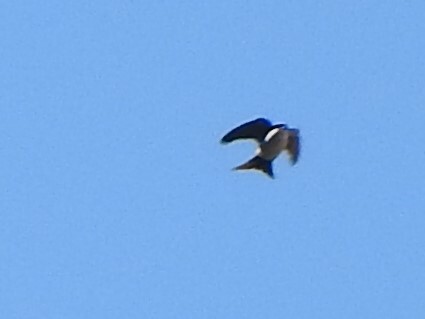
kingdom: Animalia
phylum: Chordata
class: Aves
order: Passeriformes
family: Hirundinidae
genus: Notiochelidon
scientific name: Notiochelidon cyanoleuca
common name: Blue-and-white swallow
